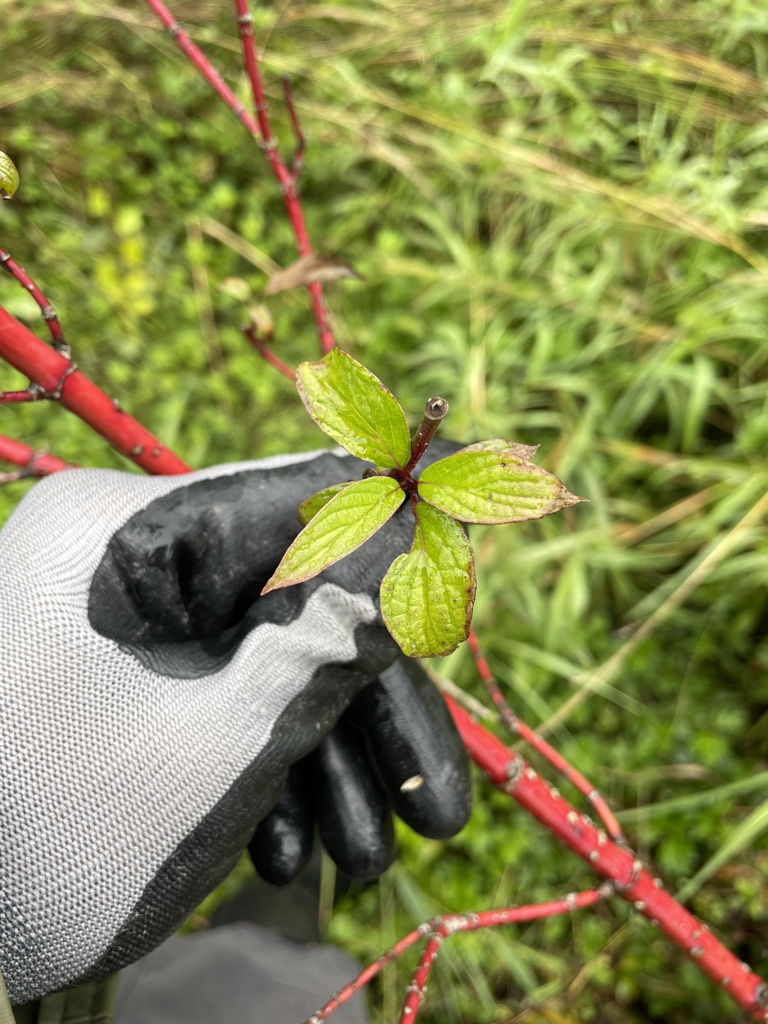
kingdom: Plantae
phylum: Tracheophyta
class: Magnoliopsida
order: Cornales
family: Cornaceae
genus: Cornus
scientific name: Cornus sericea
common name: Red-osier dogwood
